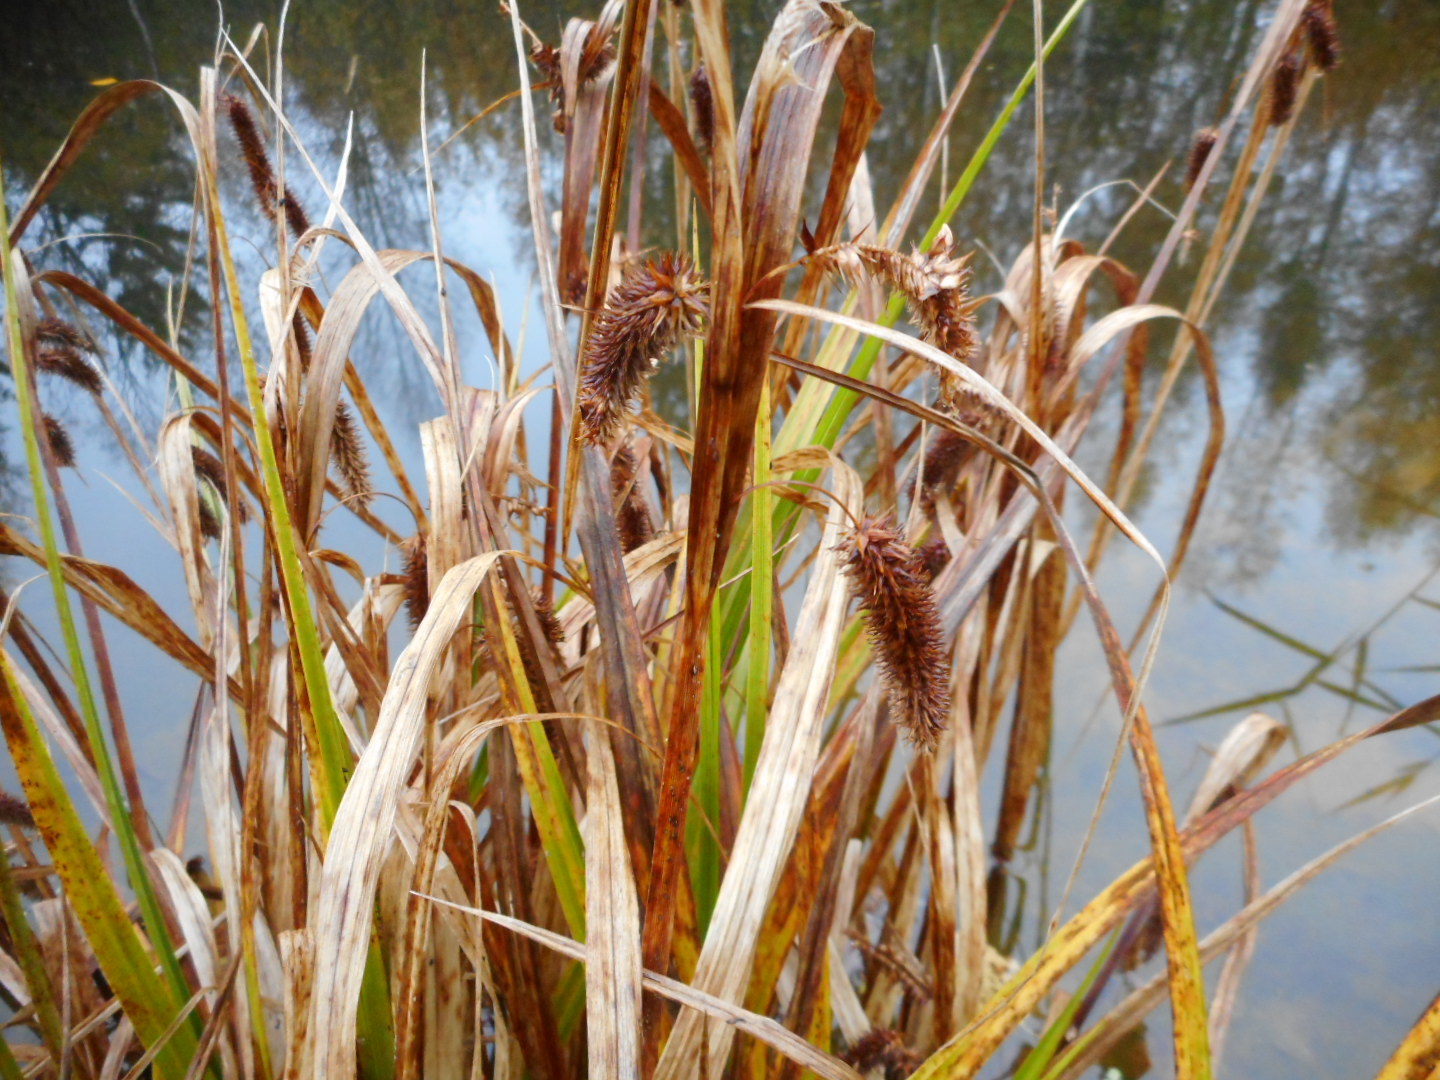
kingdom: Plantae
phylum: Tracheophyta
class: Liliopsida
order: Poales
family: Cyperaceae
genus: Carex
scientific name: Carex pseudocyperus
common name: Cyperus sedge
